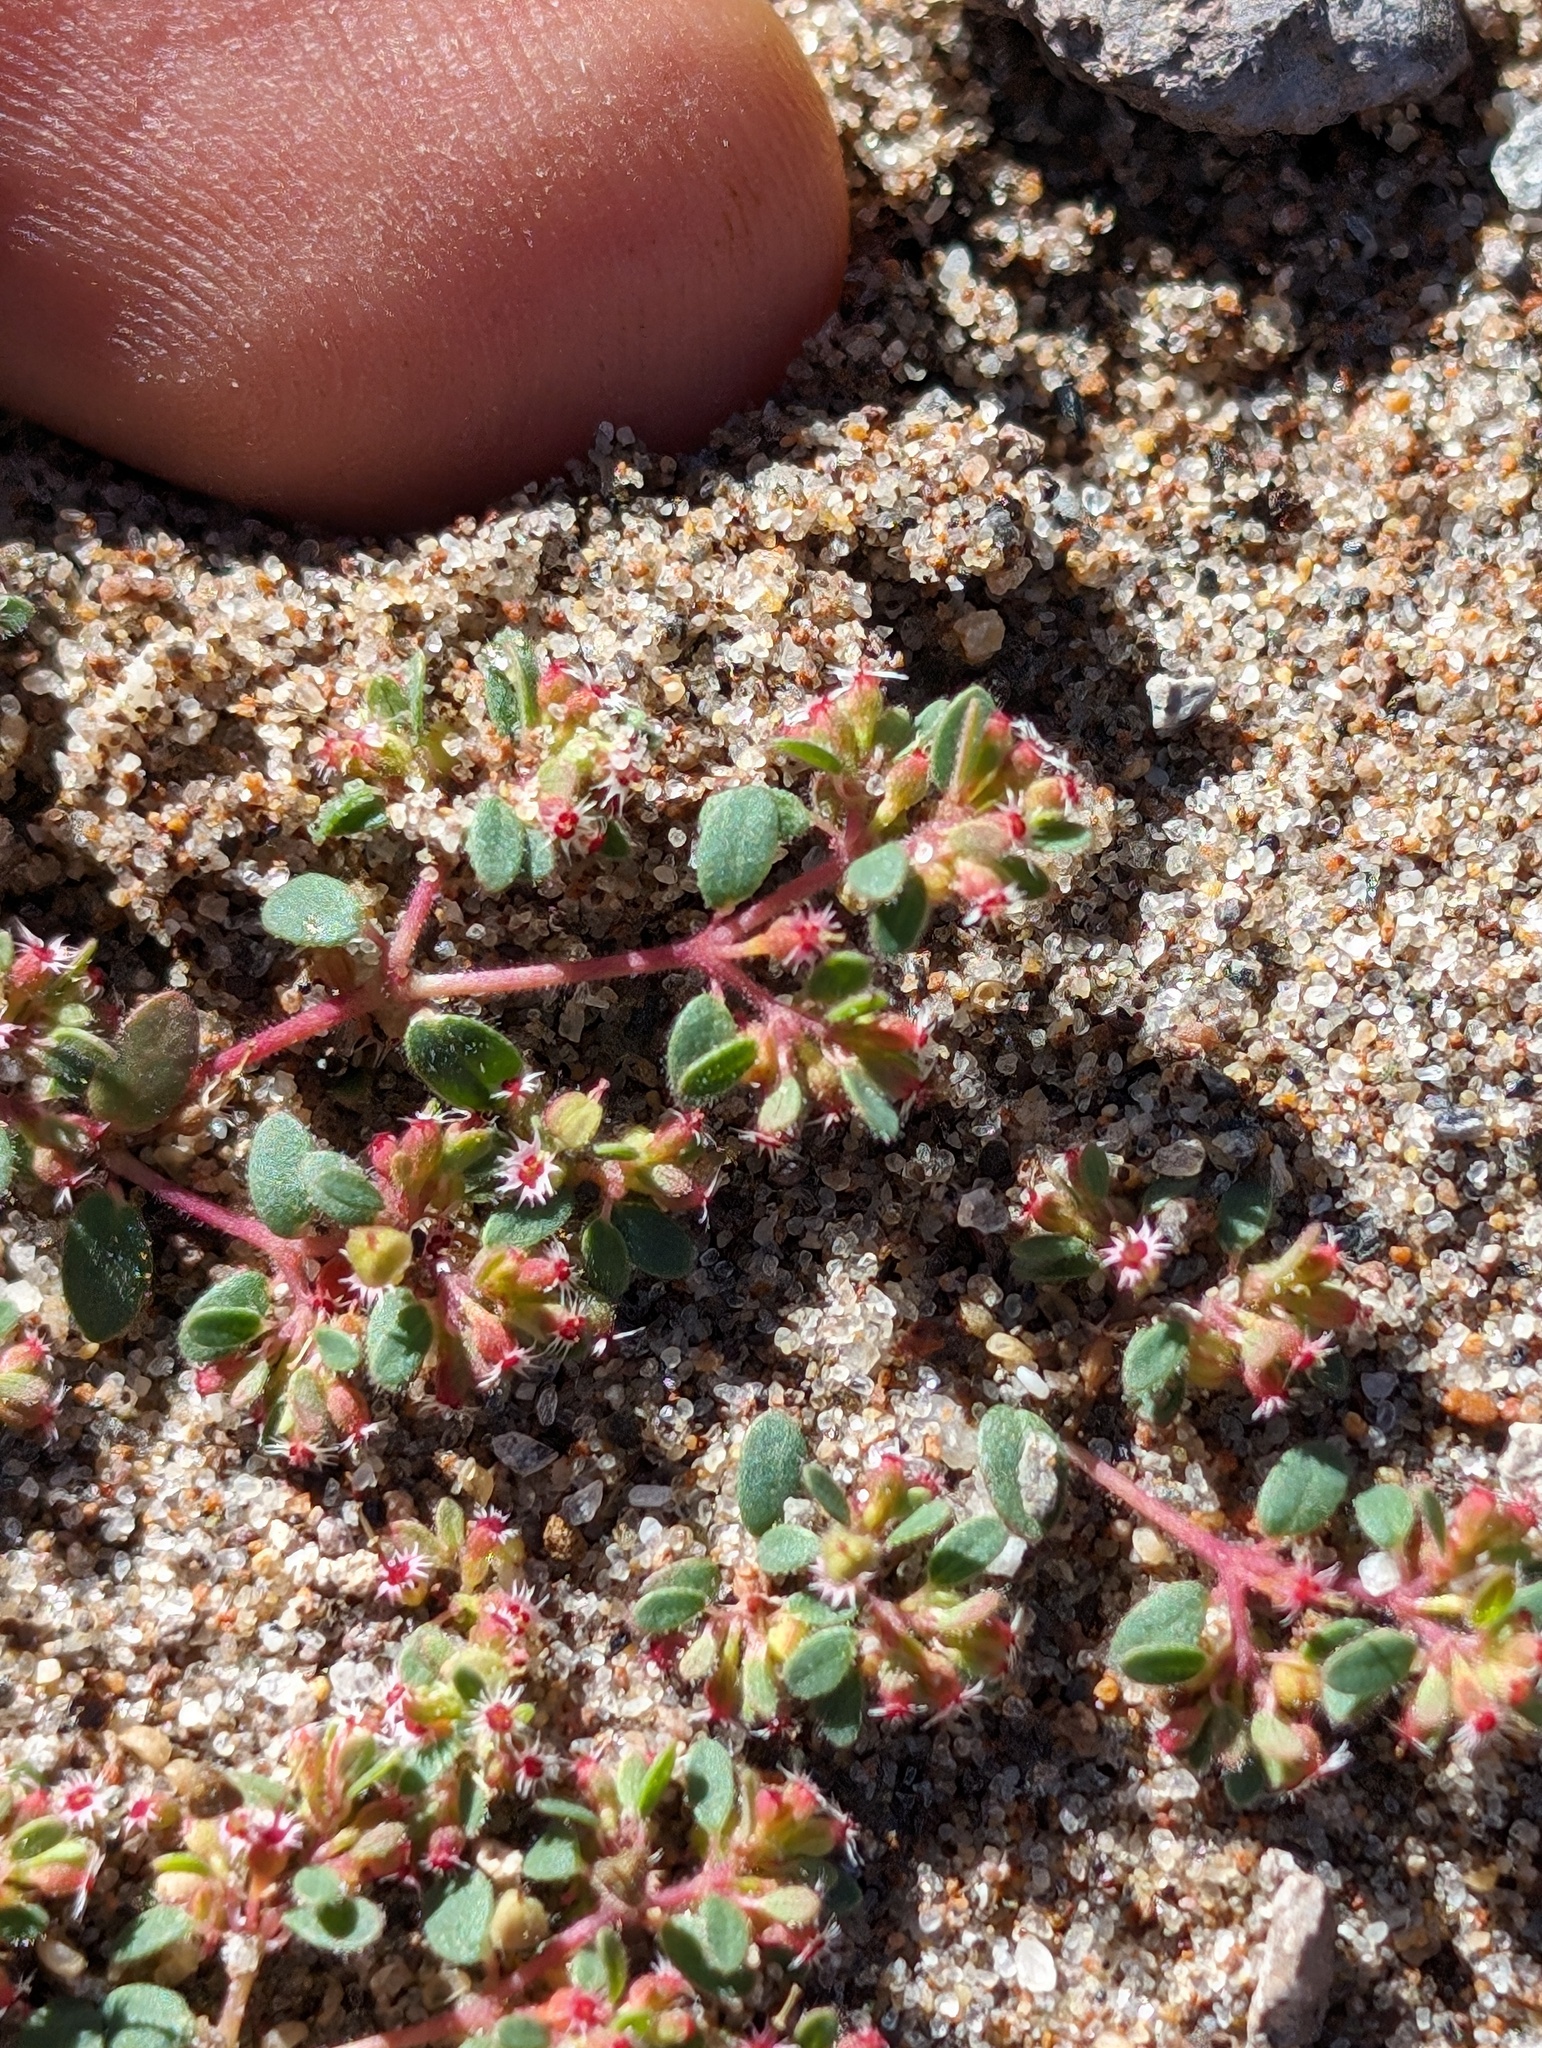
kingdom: Plantae
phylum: Tracheophyta
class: Magnoliopsida
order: Malpighiales
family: Euphorbiaceae
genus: Euphorbia
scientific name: Euphorbia setiloba
